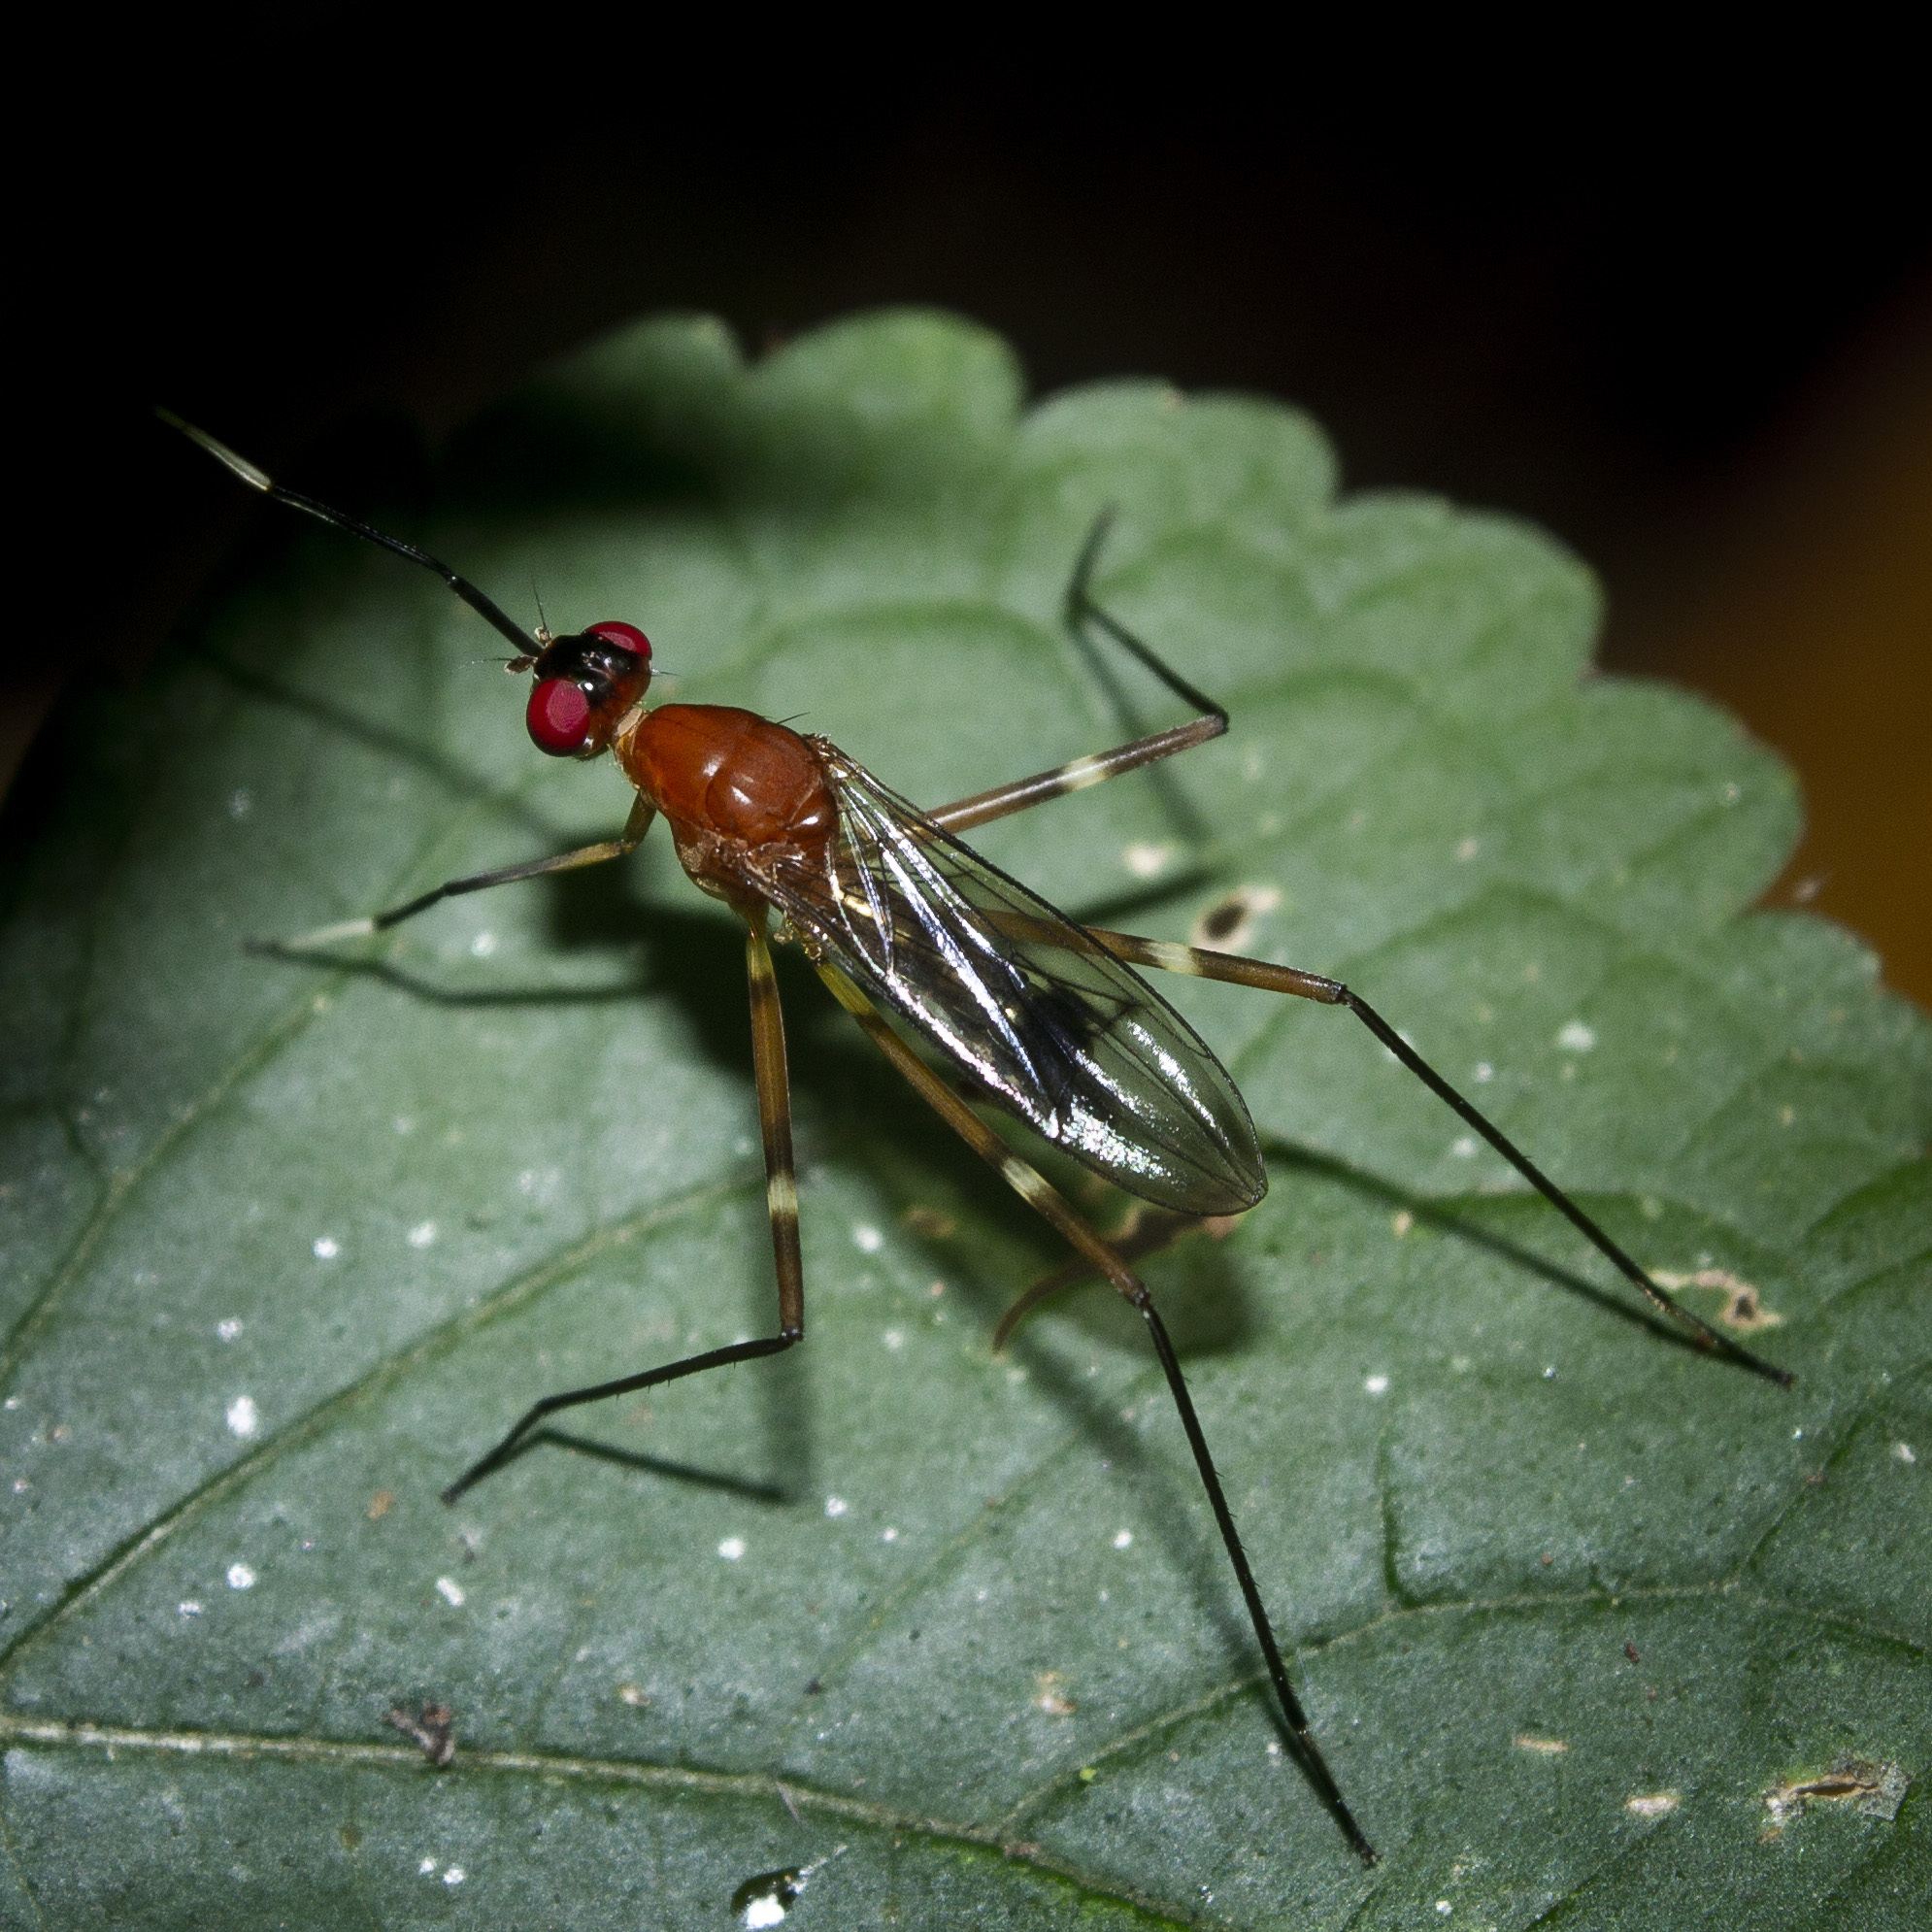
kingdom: Animalia
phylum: Arthropoda
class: Insecta
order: Diptera
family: Micropezidae
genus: Grallipeza
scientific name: Grallipeza nebulosa
